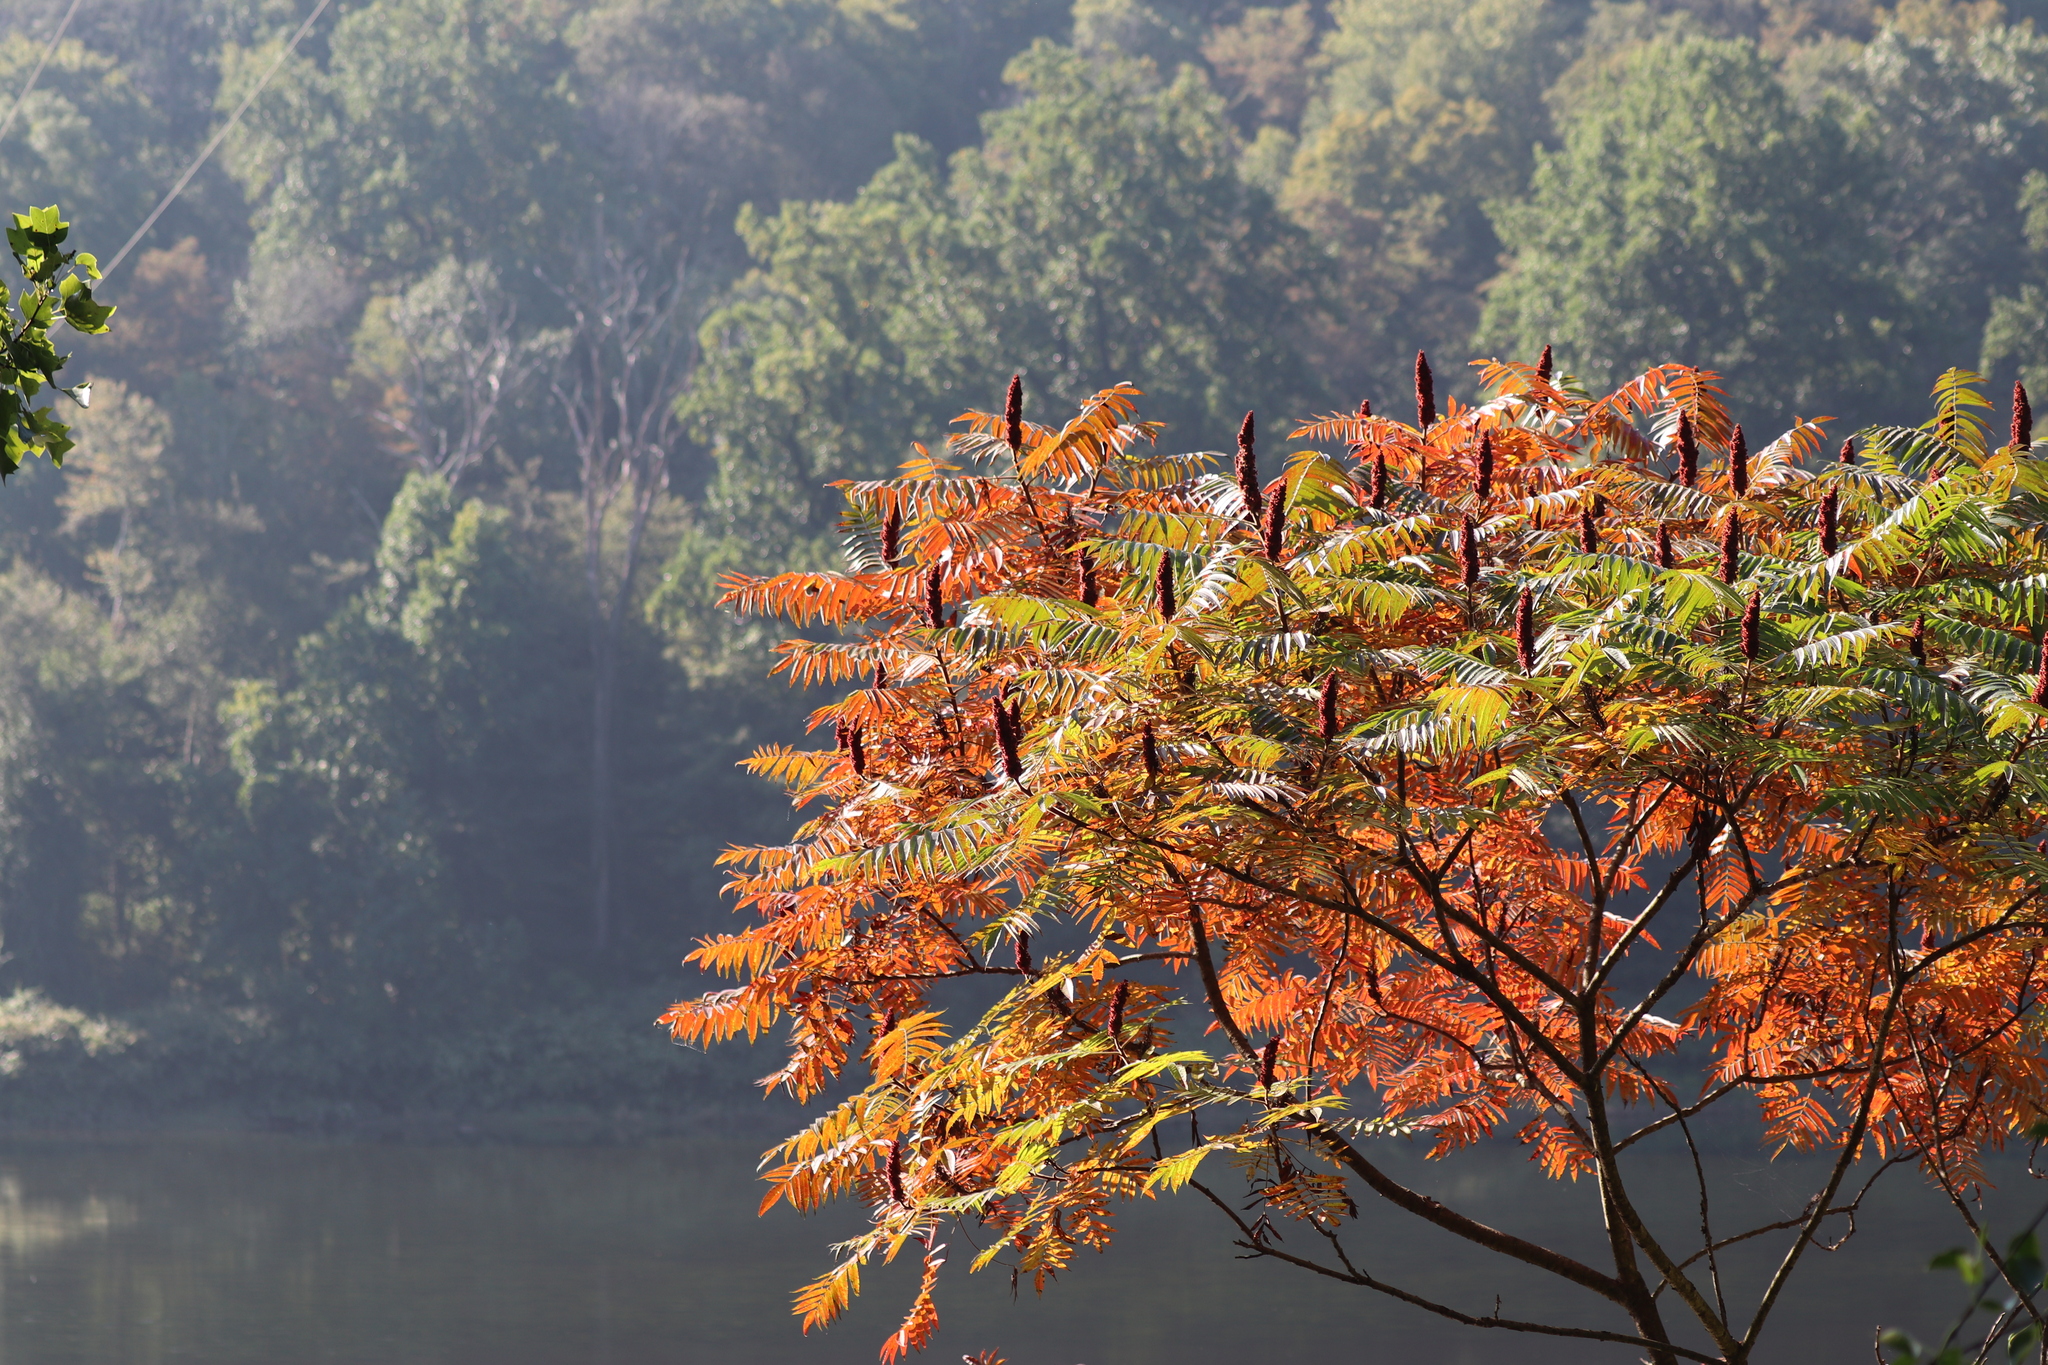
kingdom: Plantae
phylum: Tracheophyta
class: Magnoliopsida
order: Sapindales
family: Anacardiaceae
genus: Rhus
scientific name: Rhus typhina
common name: Staghorn sumac
